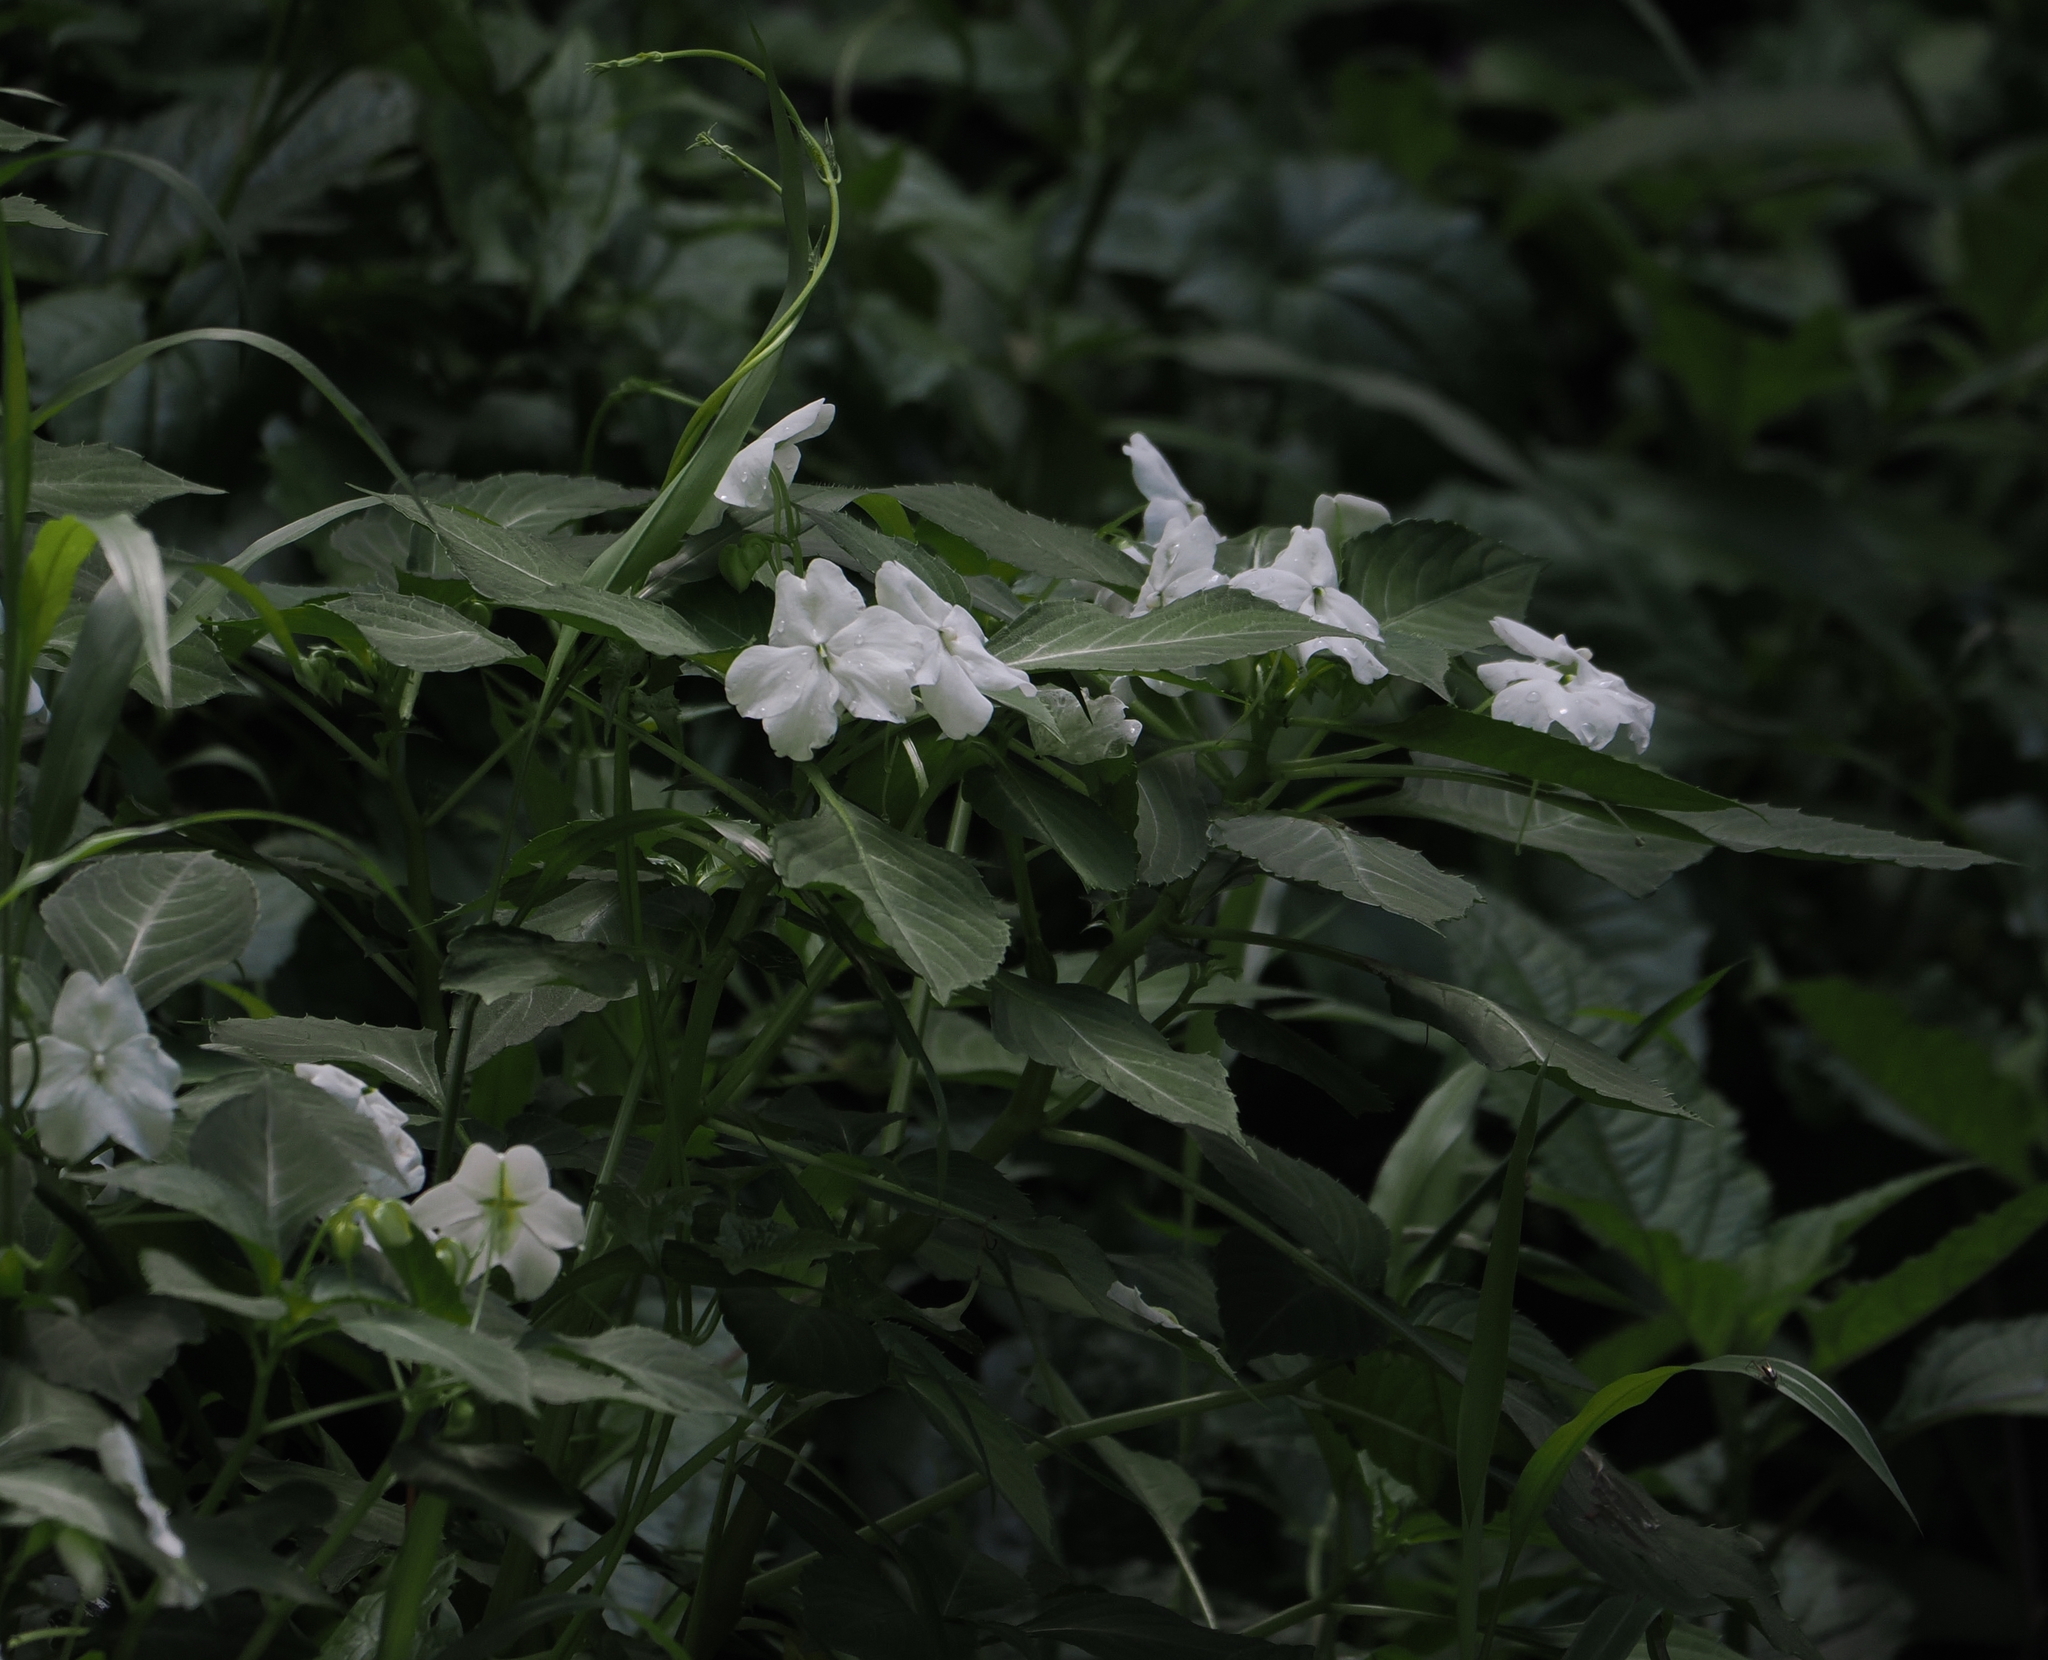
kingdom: Plantae
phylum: Tracheophyta
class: Magnoliopsida
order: Ericales
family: Balsaminaceae
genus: Impatiens
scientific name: Impatiens walleriana
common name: Buzzy lizzy
